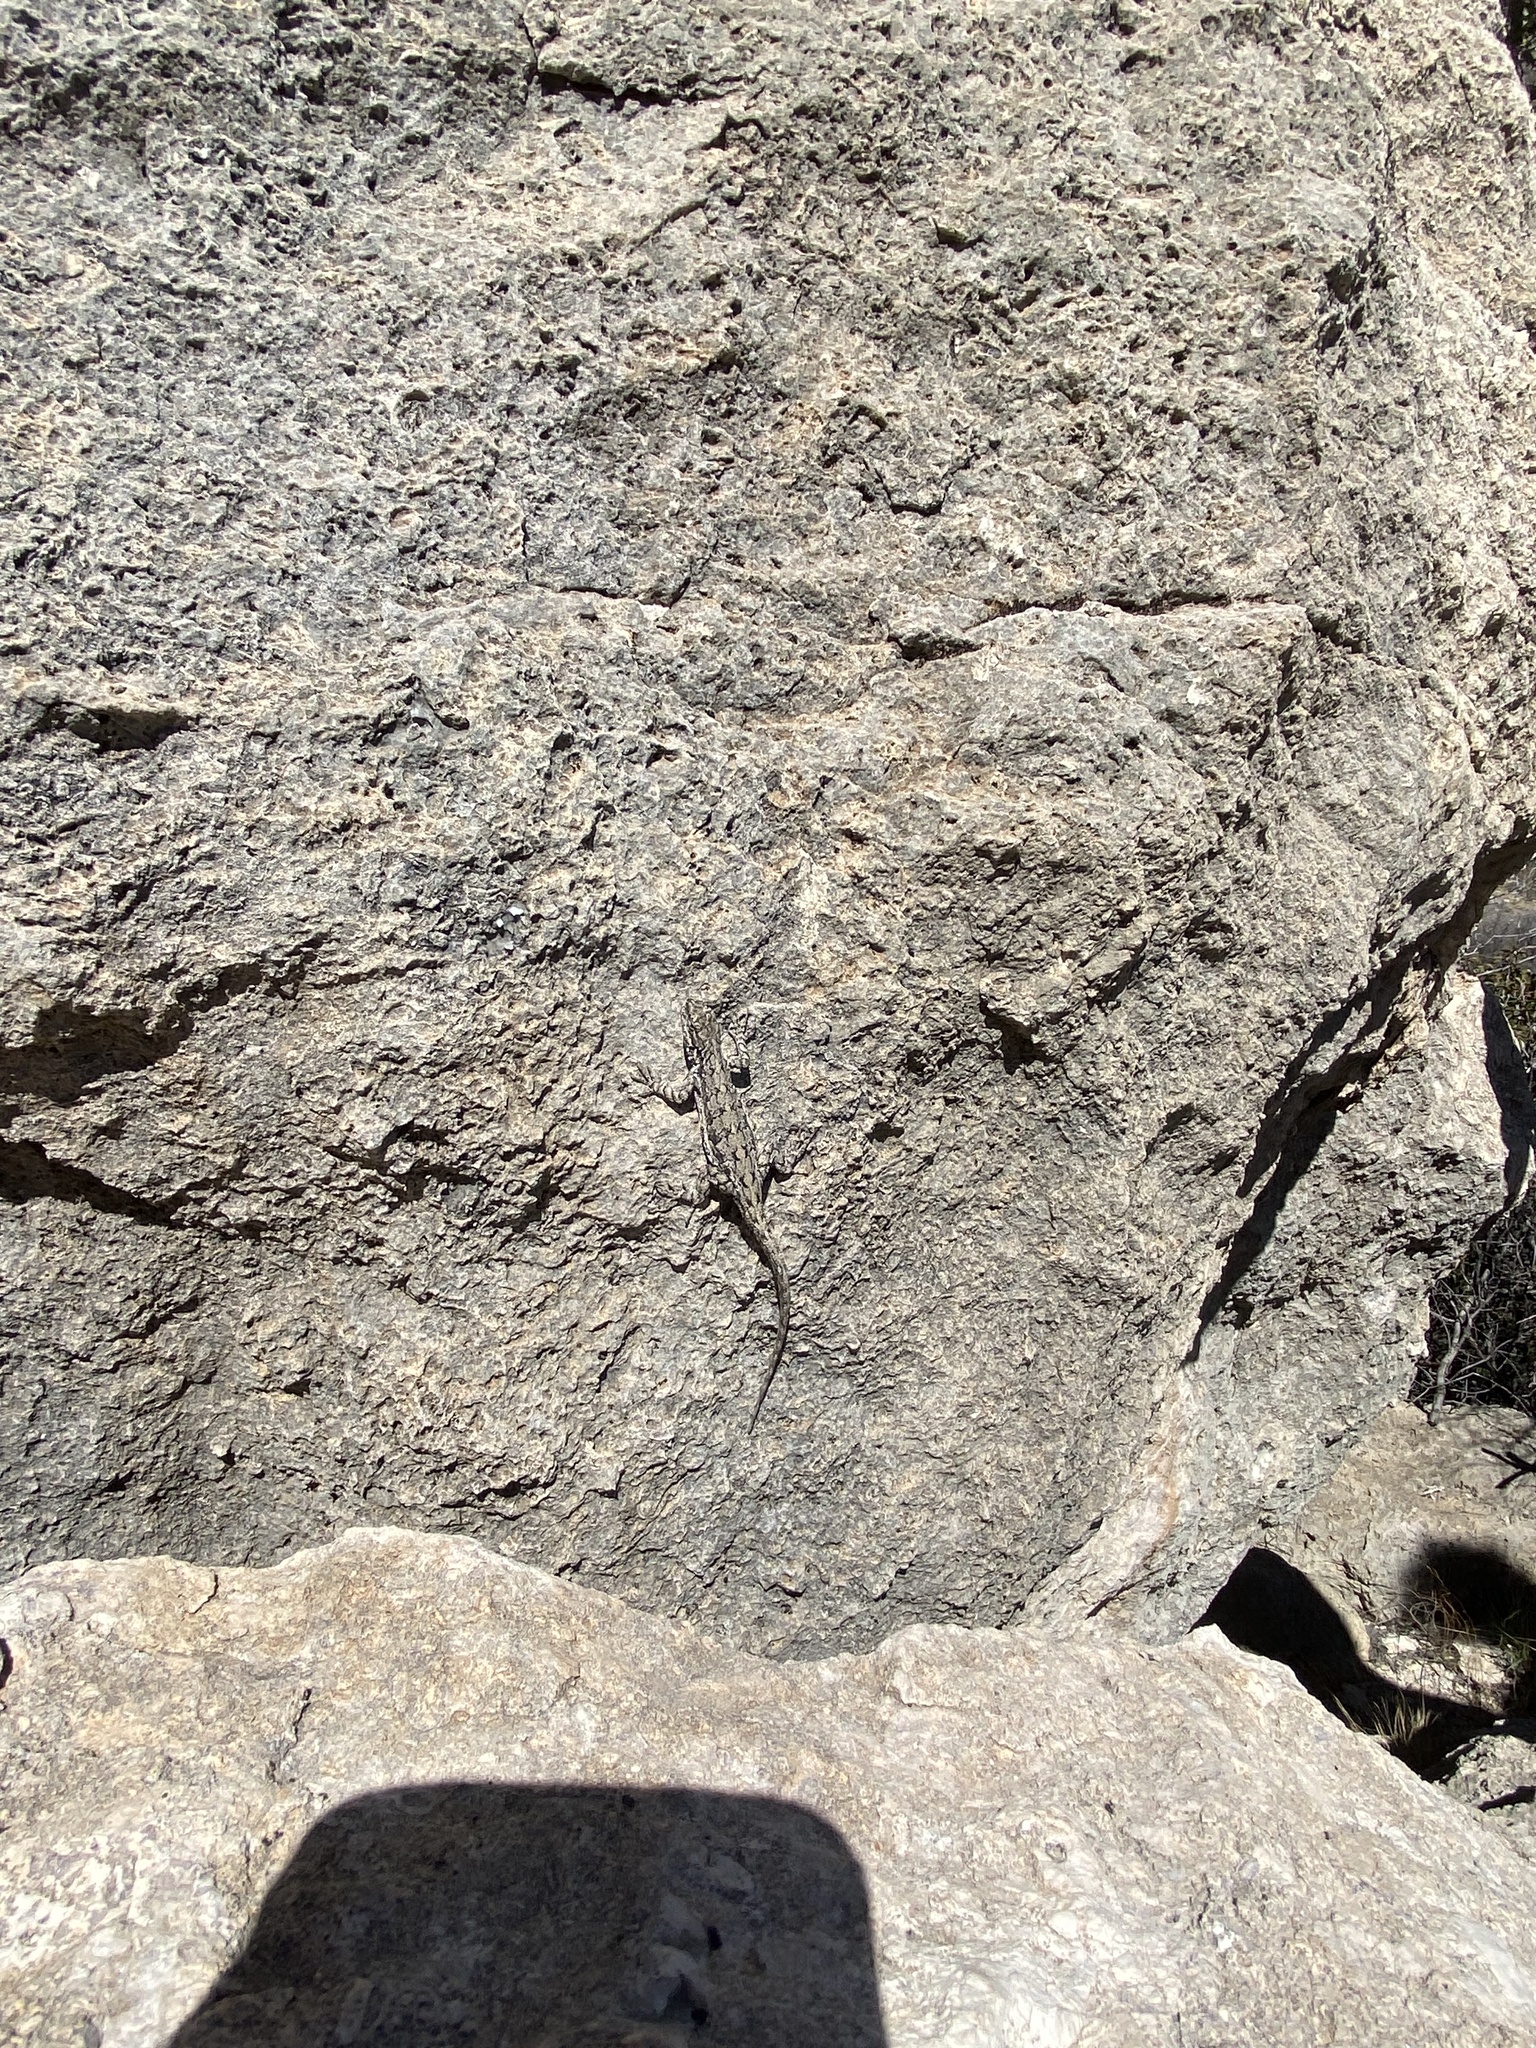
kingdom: Animalia
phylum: Chordata
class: Squamata
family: Phrynosomatidae
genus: Urosaurus
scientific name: Urosaurus ornatus
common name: Ornate tree lizard
